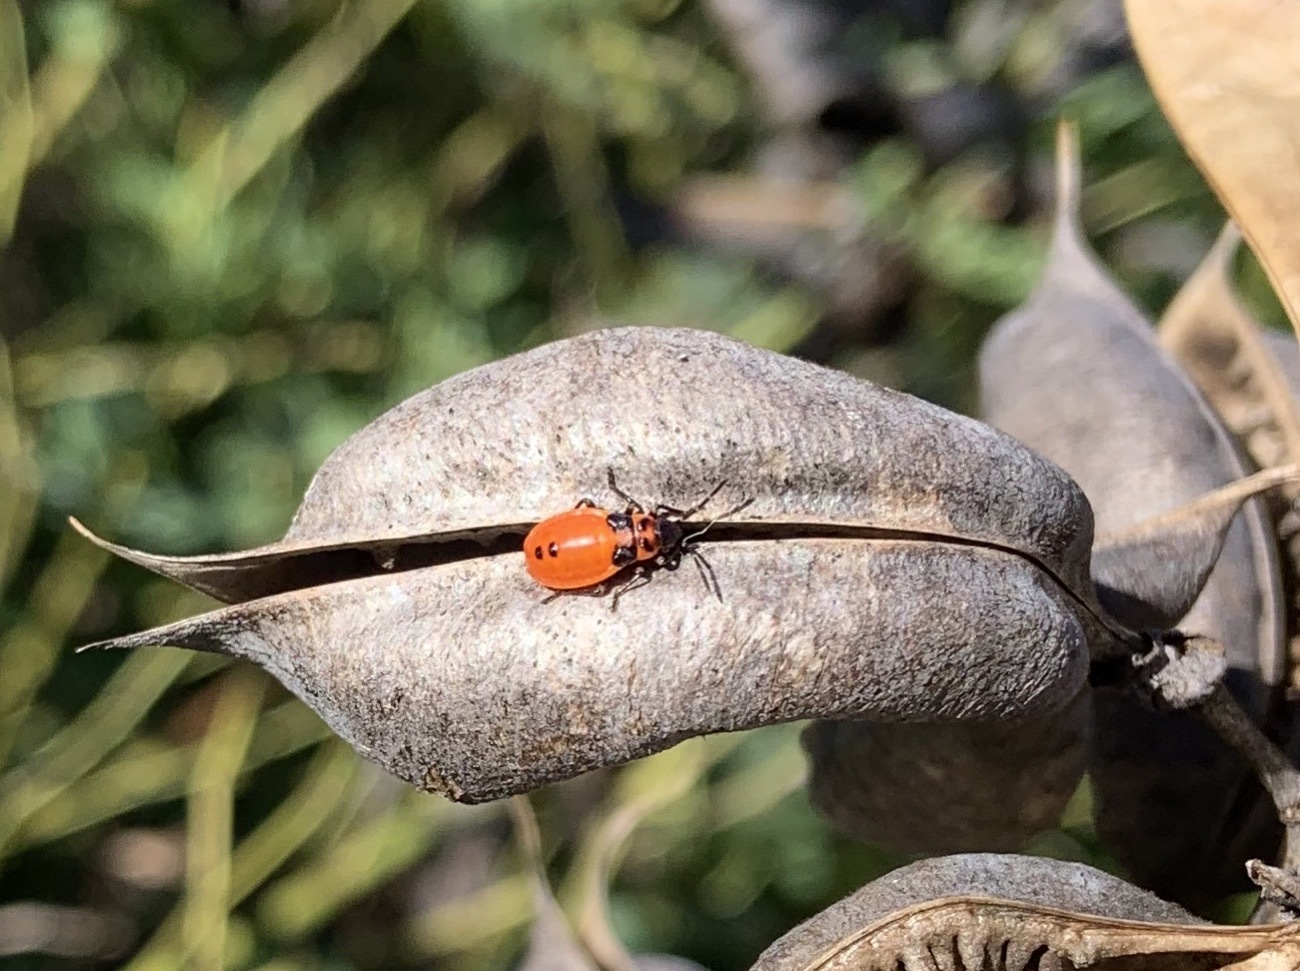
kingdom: Animalia
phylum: Arthropoda
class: Insecta
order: Hemiptera
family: Lygaeidae
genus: Lygaeus
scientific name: Lygaeus turcicus
